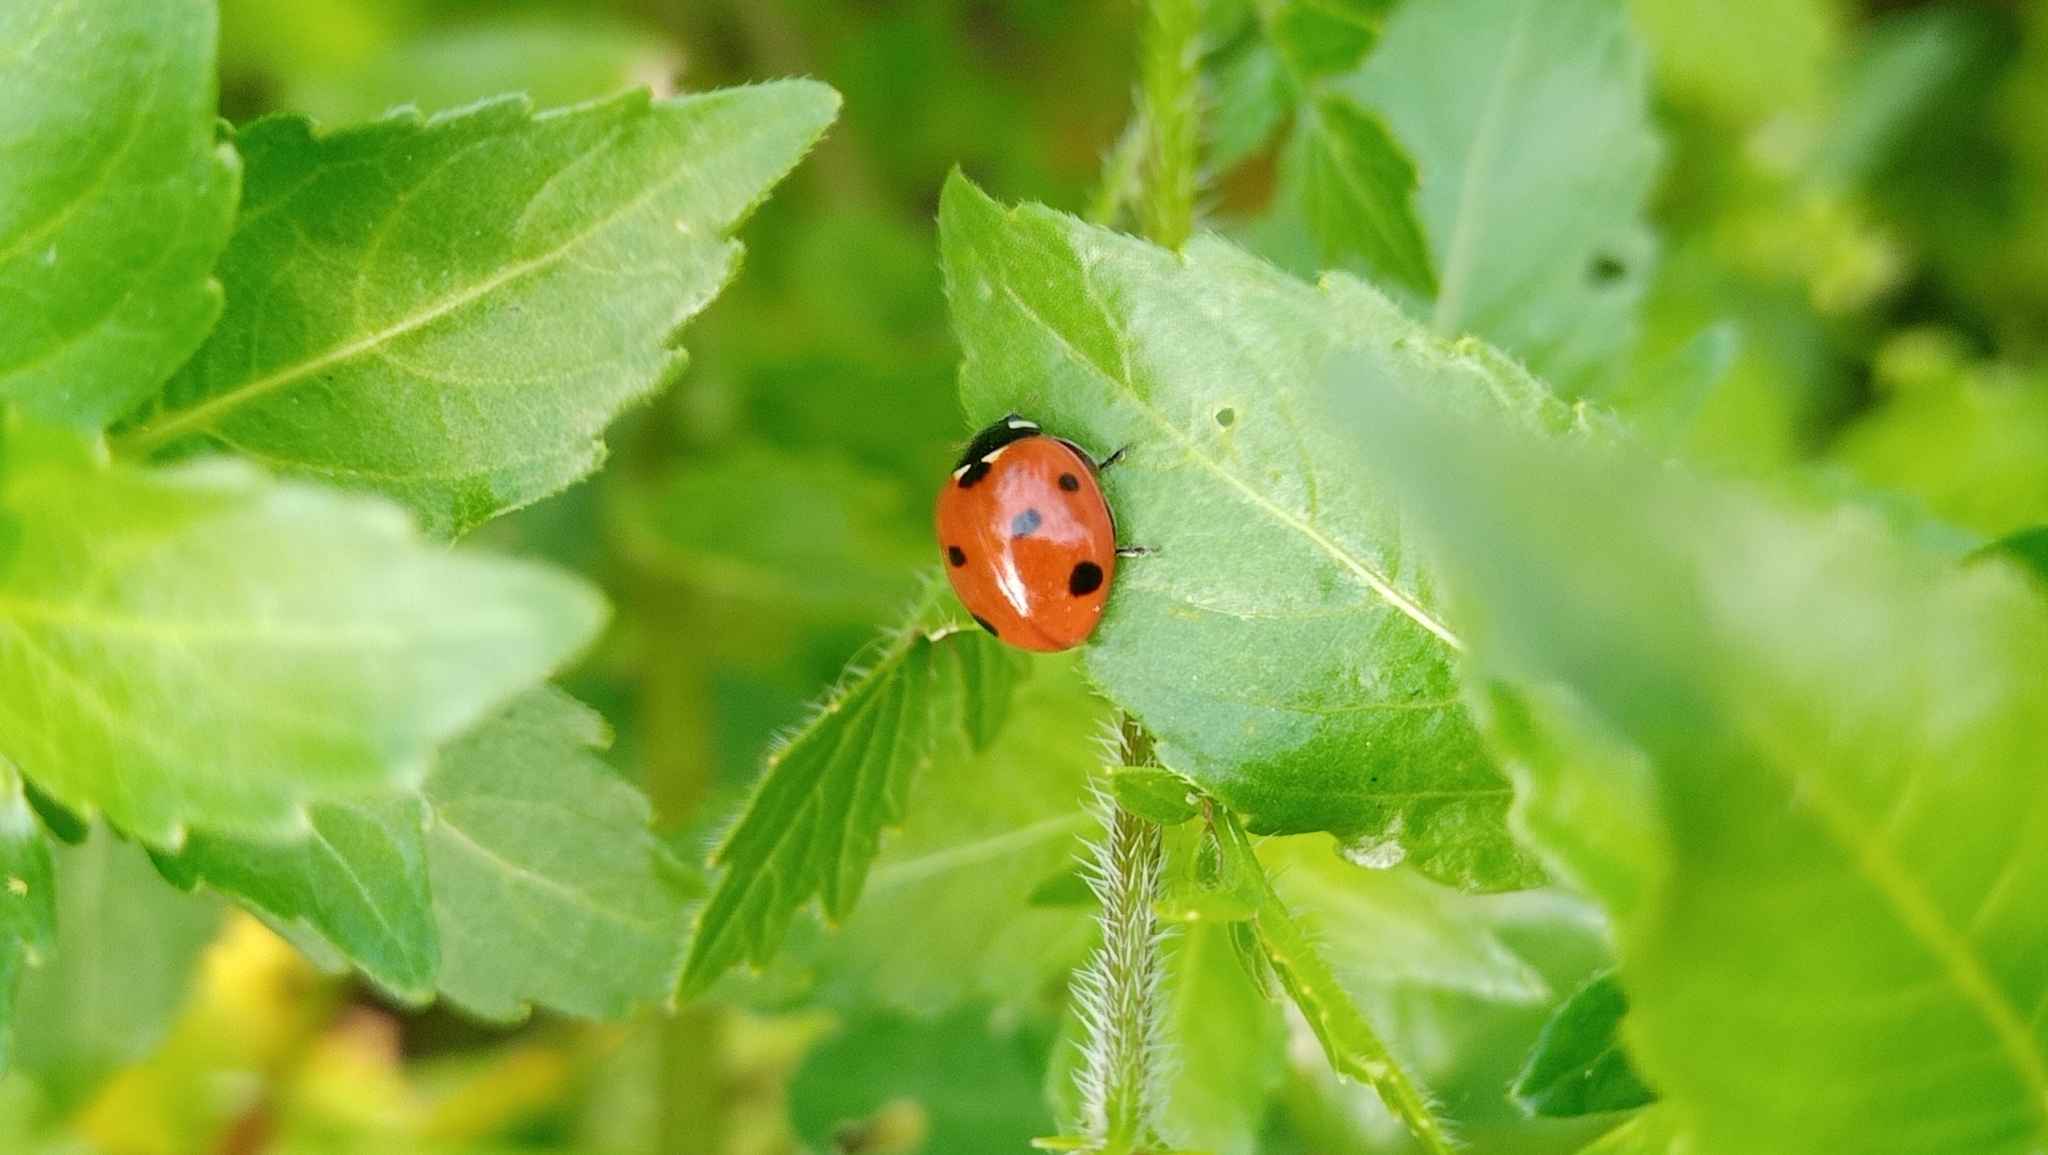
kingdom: Animalia
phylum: Arthropoda
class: Insecta
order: Coleoptera
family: Coccinellidae
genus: Coccinella
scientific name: Coccinella septempunctata
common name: Sevenspotted lady beetle
